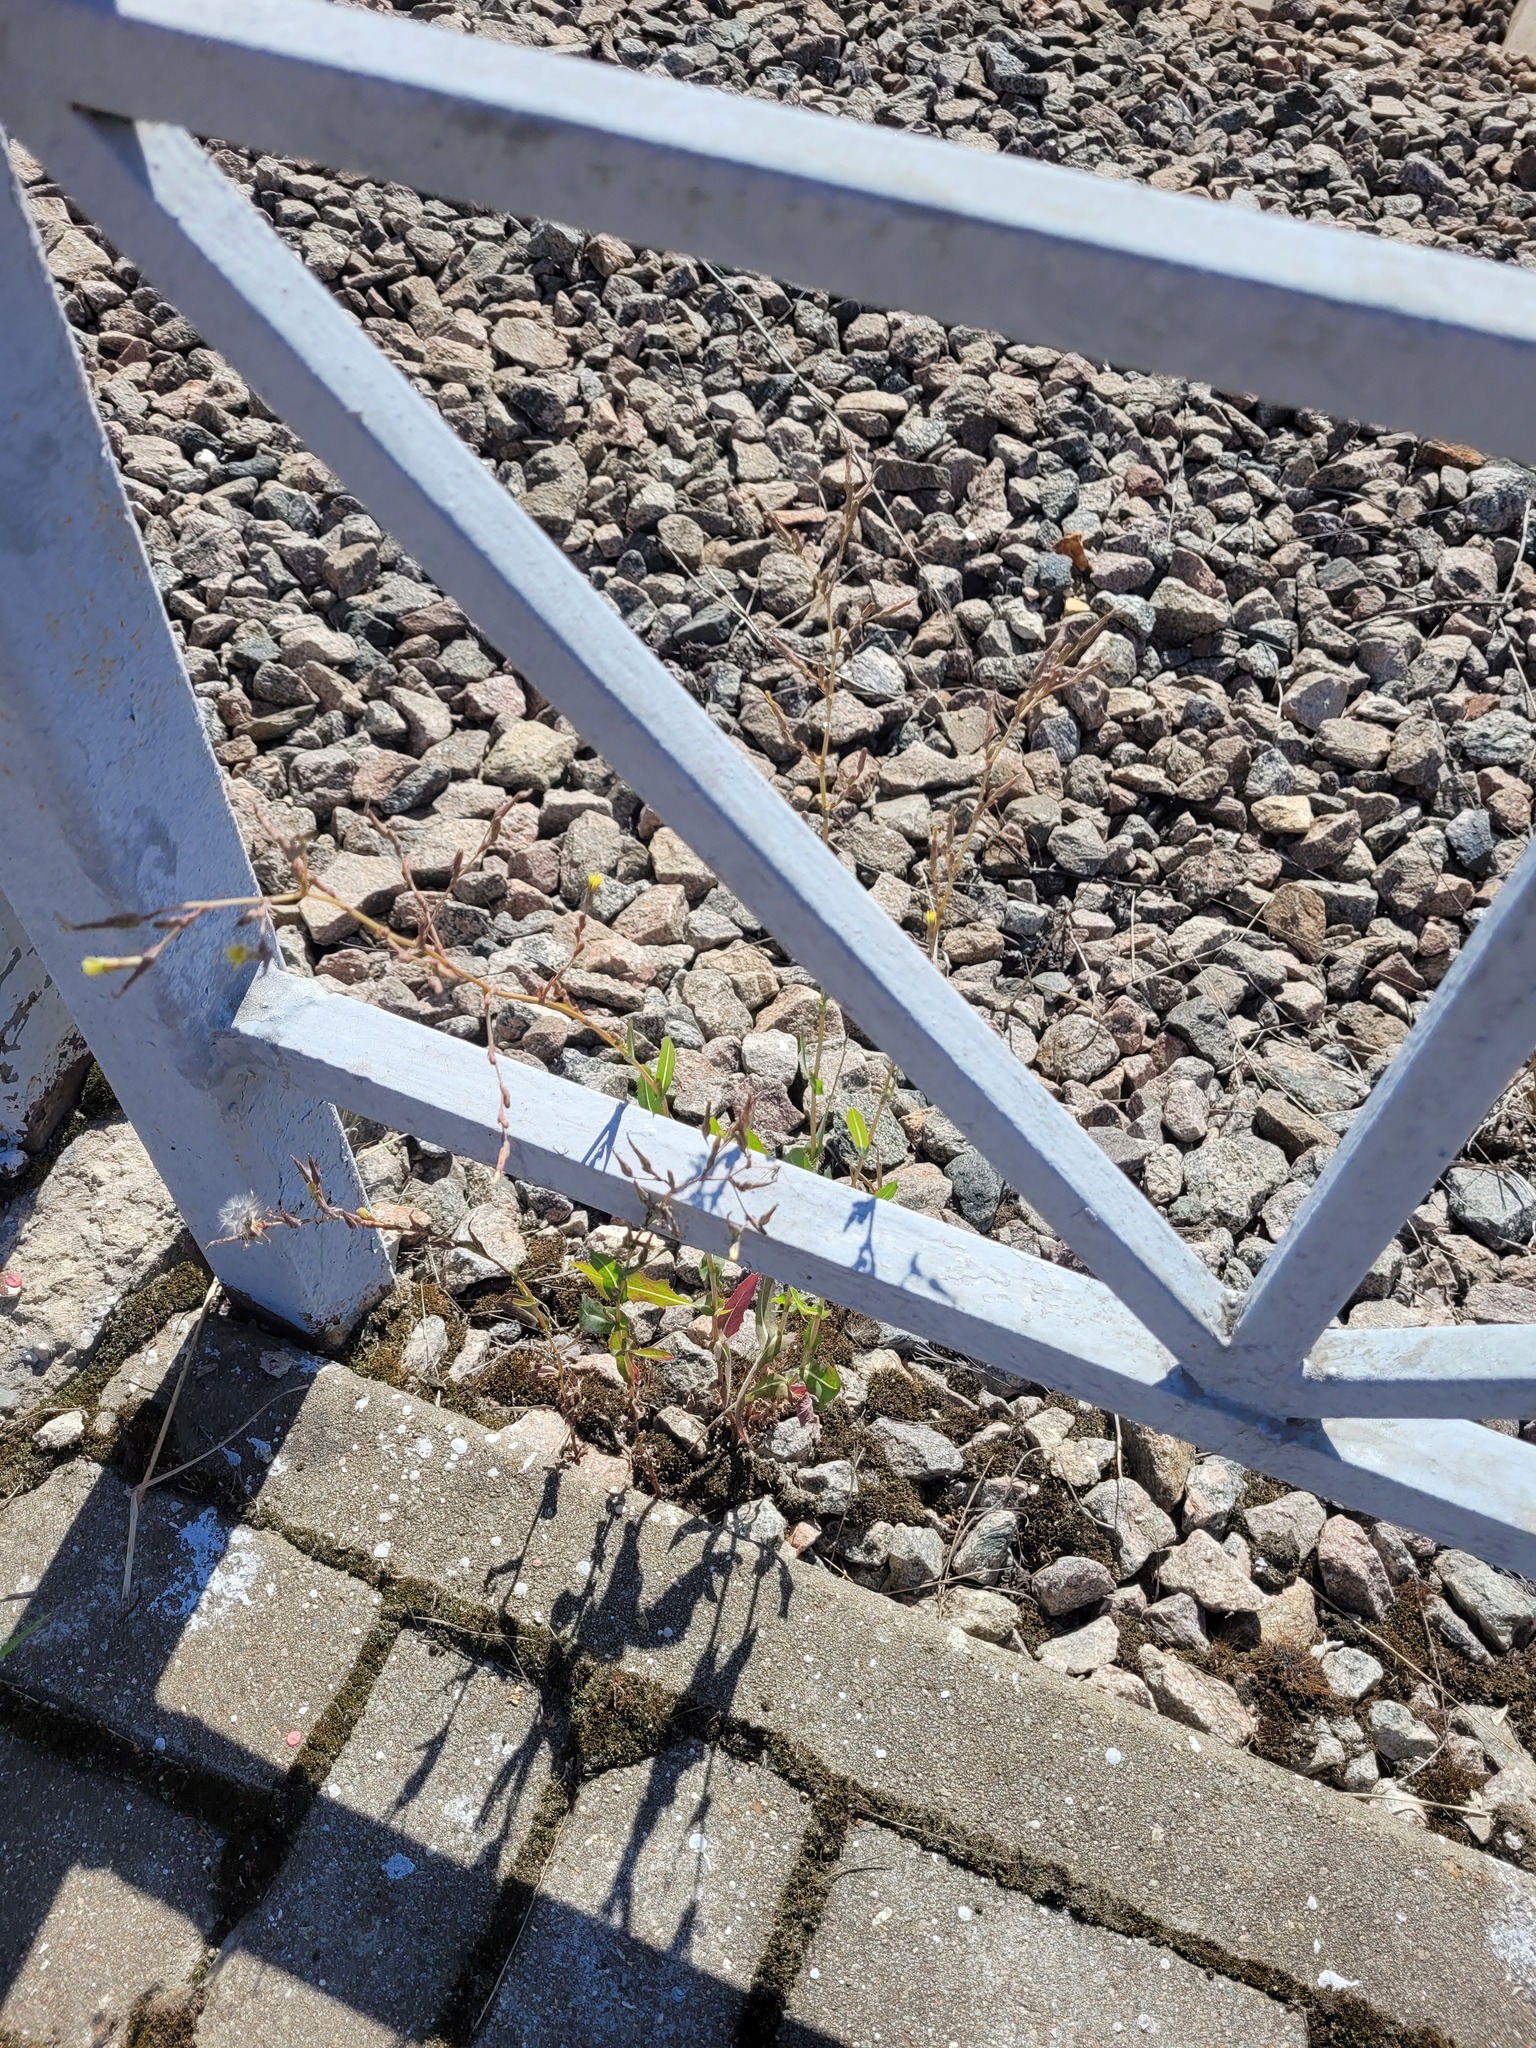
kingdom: Plantae
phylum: Tracheophyta
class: Magnoliopsida
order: Asterales
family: Asteraceae
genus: Lactuca
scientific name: Lactuca serriola
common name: Prickly lettuce
